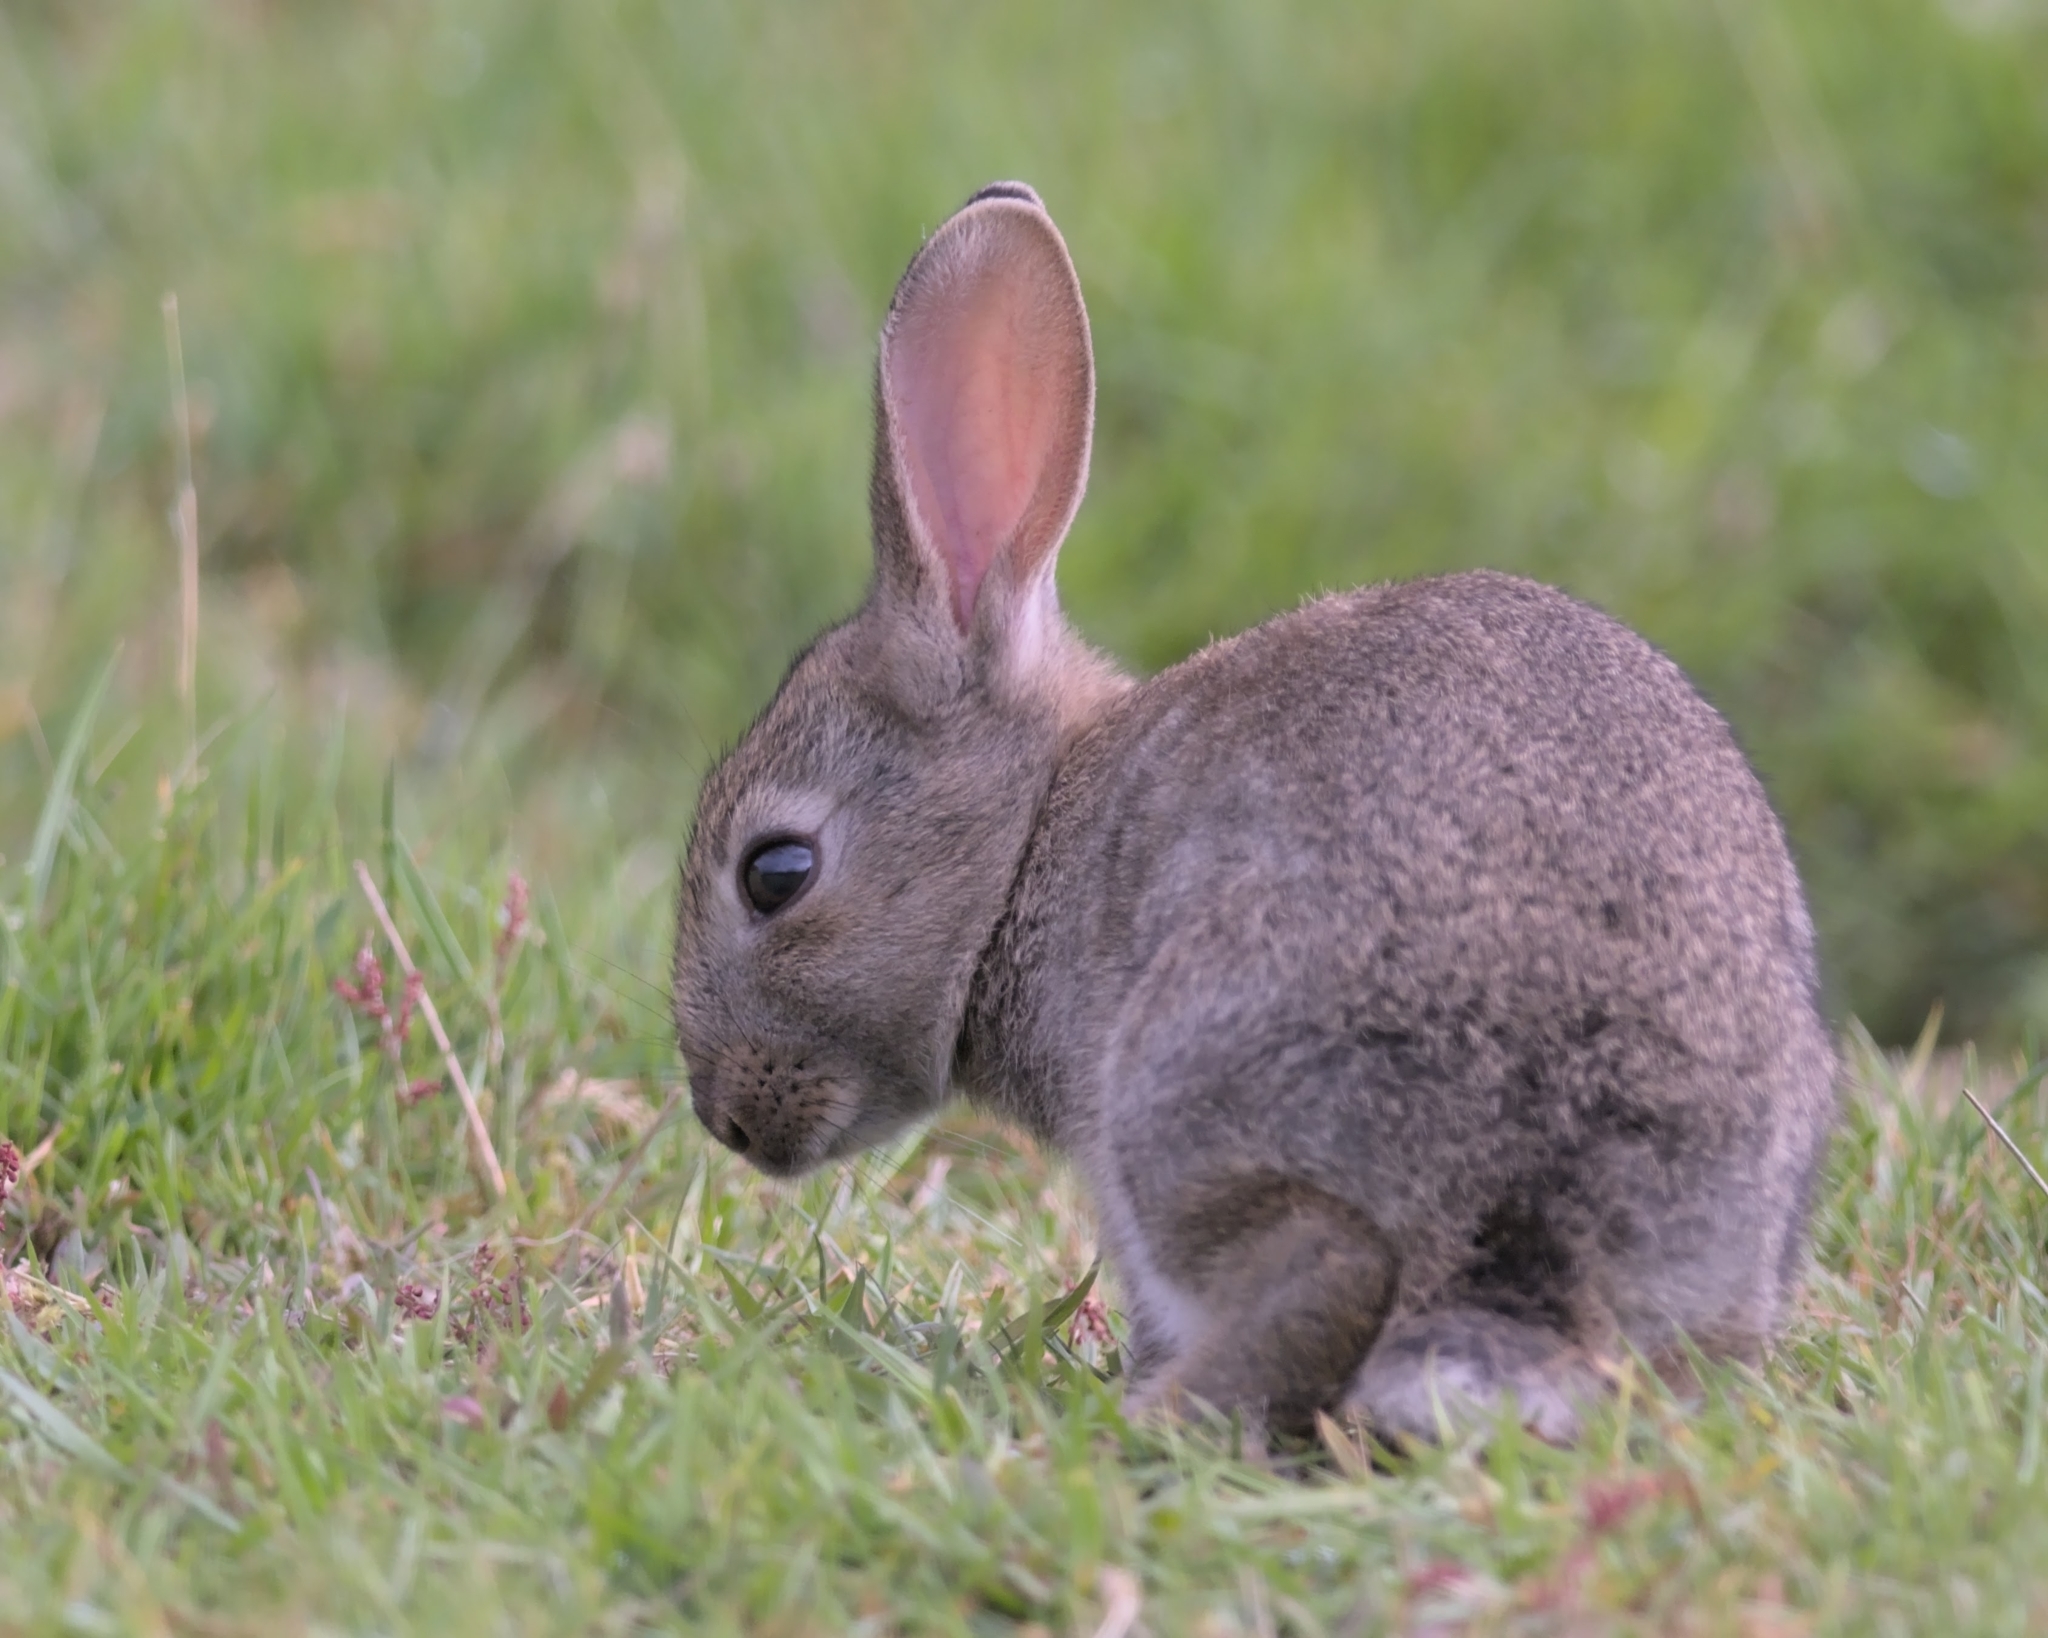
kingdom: Animalia
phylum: Chordata
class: Mammalia
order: Lagomorpha
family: Leporidae
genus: Oryctolagus
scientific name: Oryctolagus cuniculus
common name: European rabbit
